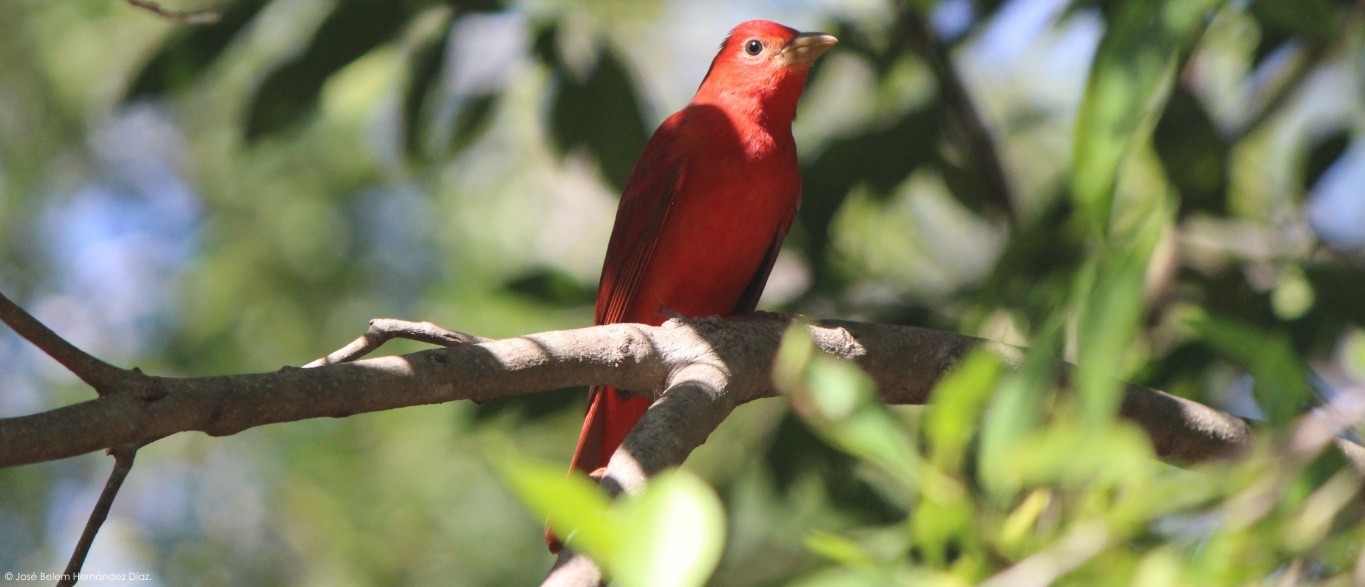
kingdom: Animalia
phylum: Chordata
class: Aves
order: Passeriformes
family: Cardinalidae
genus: Piranga
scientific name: Piranga rubra
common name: Summer tanager
